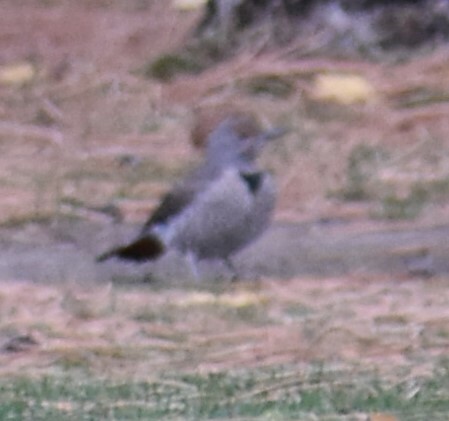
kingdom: Animalia
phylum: Chordata
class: Aves
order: Piciformes
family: Picidae
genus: Colaptes
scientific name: Colaptes auratus
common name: Northern flicker
